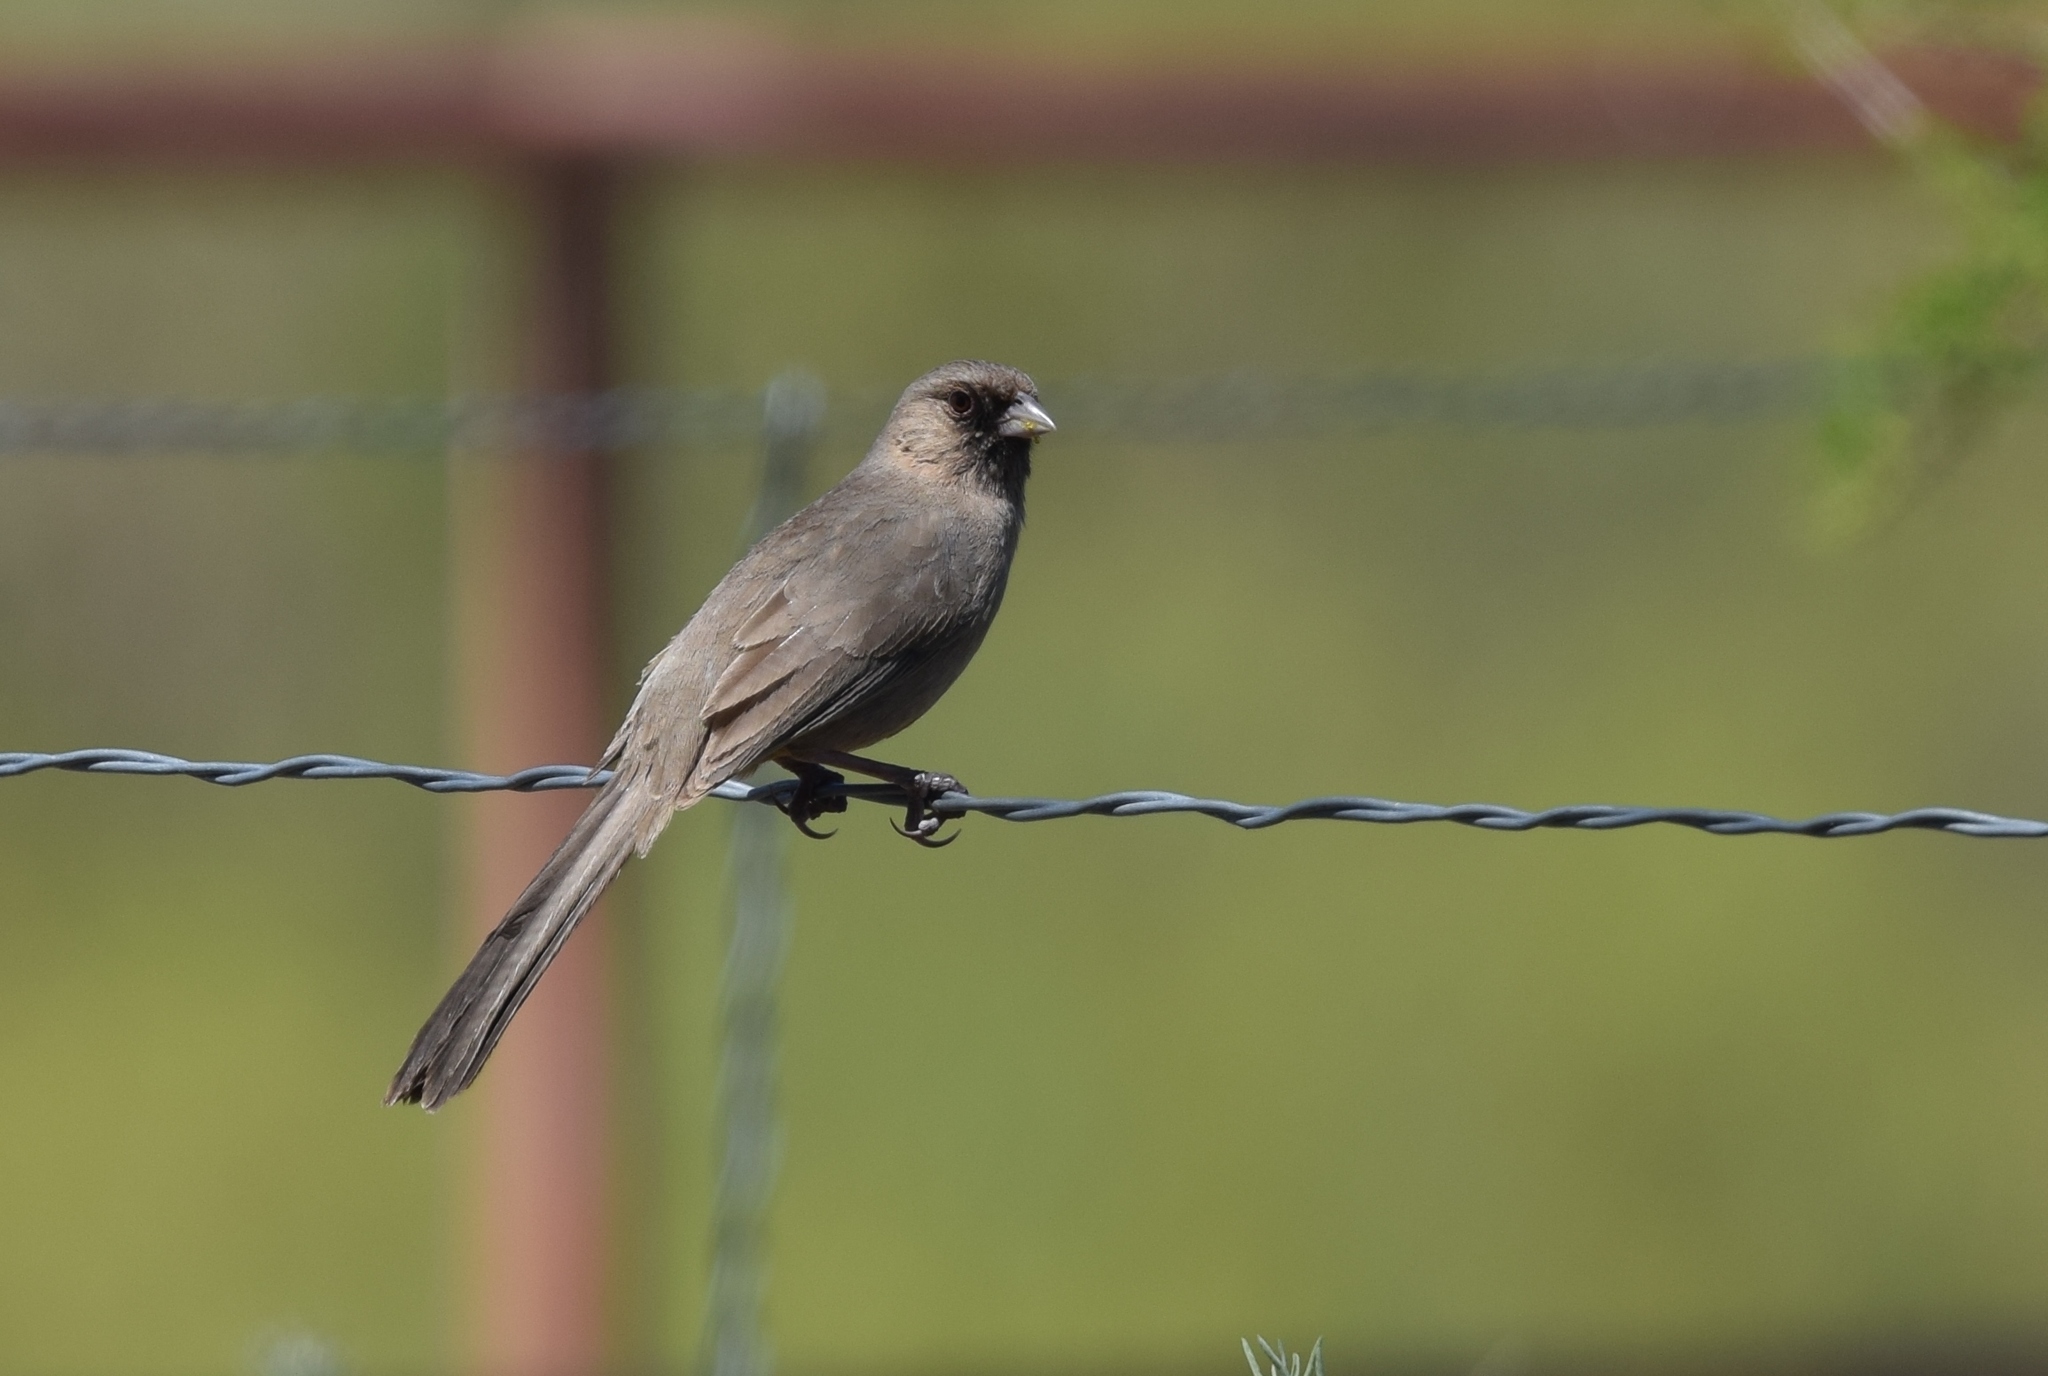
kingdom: Animalia
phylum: Chordata
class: Aves
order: Passeriformes
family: Passerellidae
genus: Melozone
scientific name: Melozone aberti
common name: Abert's towhee
